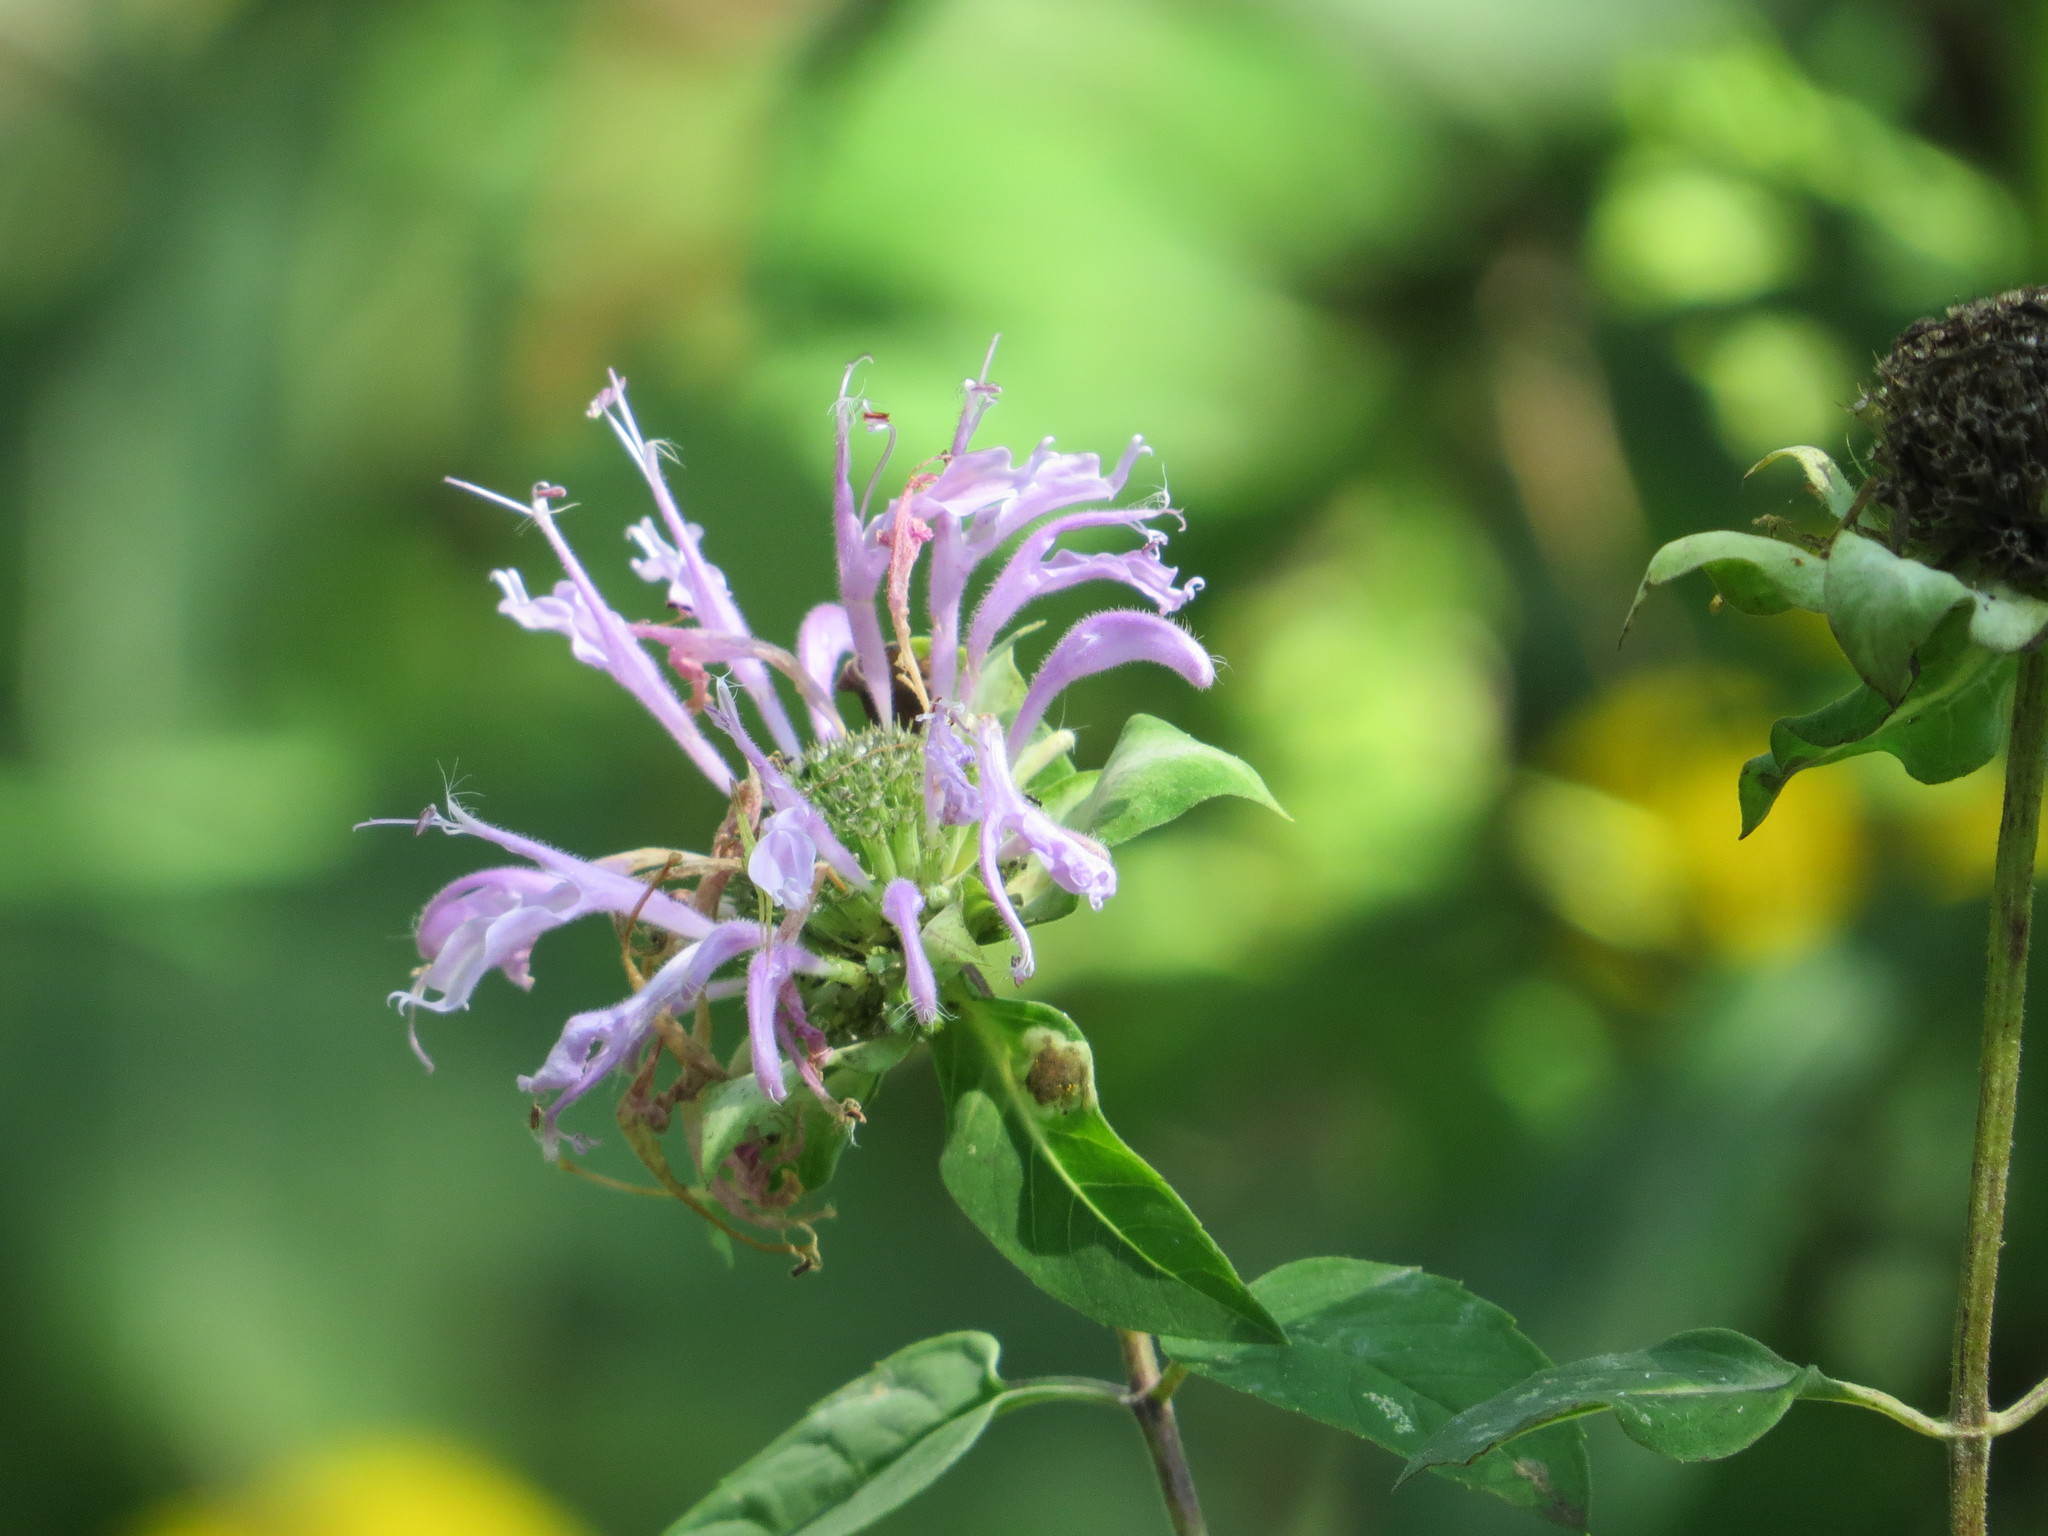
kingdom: Plantae
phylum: Tracheophyta
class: Magnoliopsida
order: Lamiales
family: Lamiaceae
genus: Monarda
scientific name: Monarda fistulosa
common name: Purple beebalm
